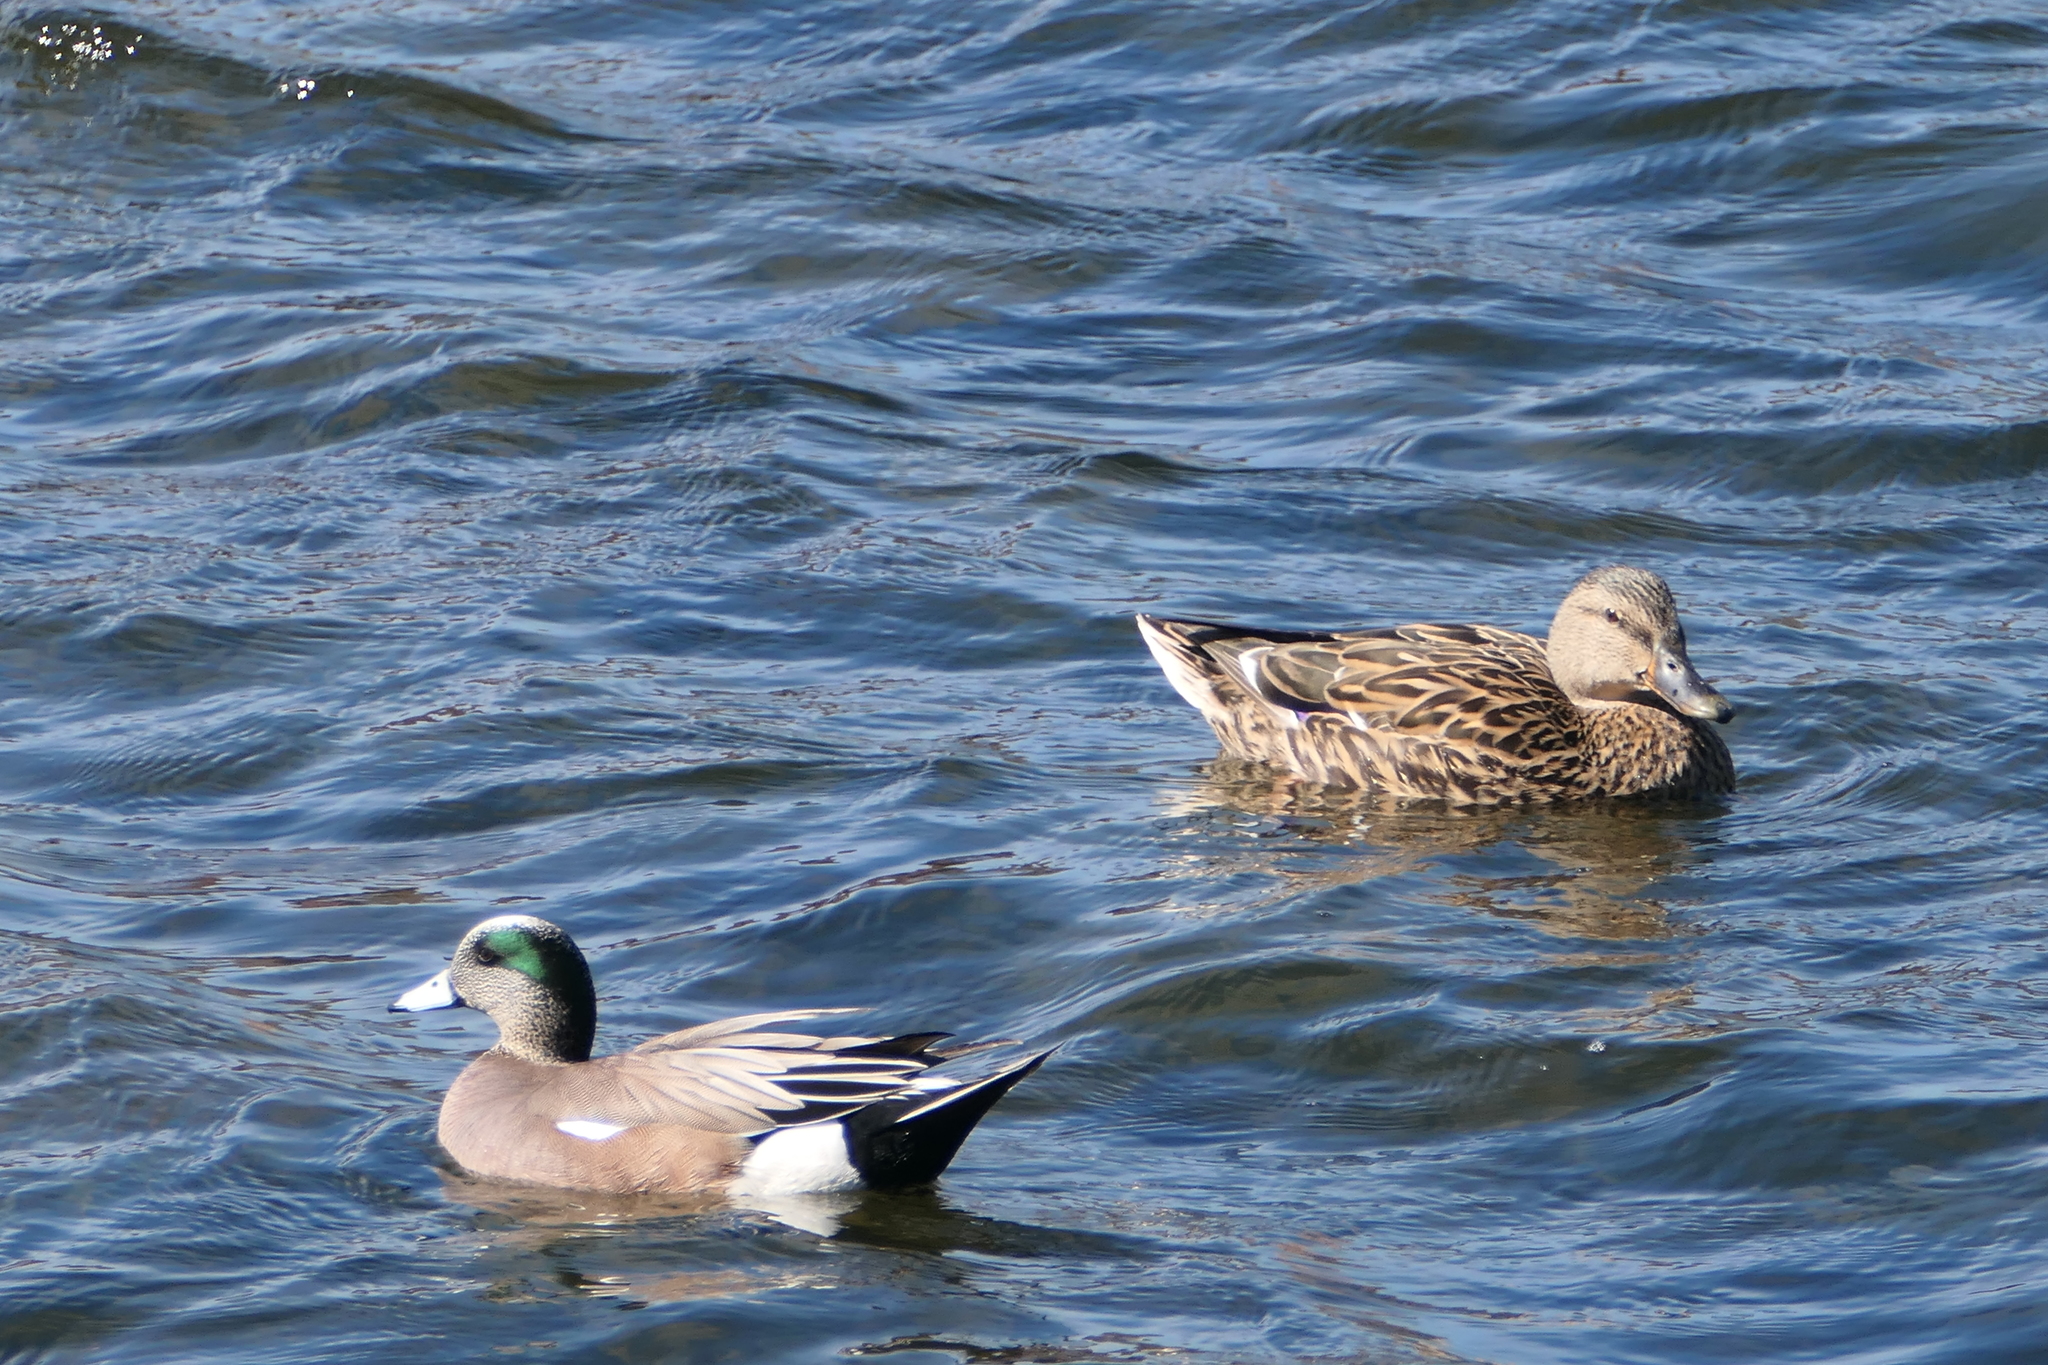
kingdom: Animalia
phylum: Chordata
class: Aves
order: Anseriformes
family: Anatidae
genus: Anas
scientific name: Anas platyrhynchos
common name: Mallard
